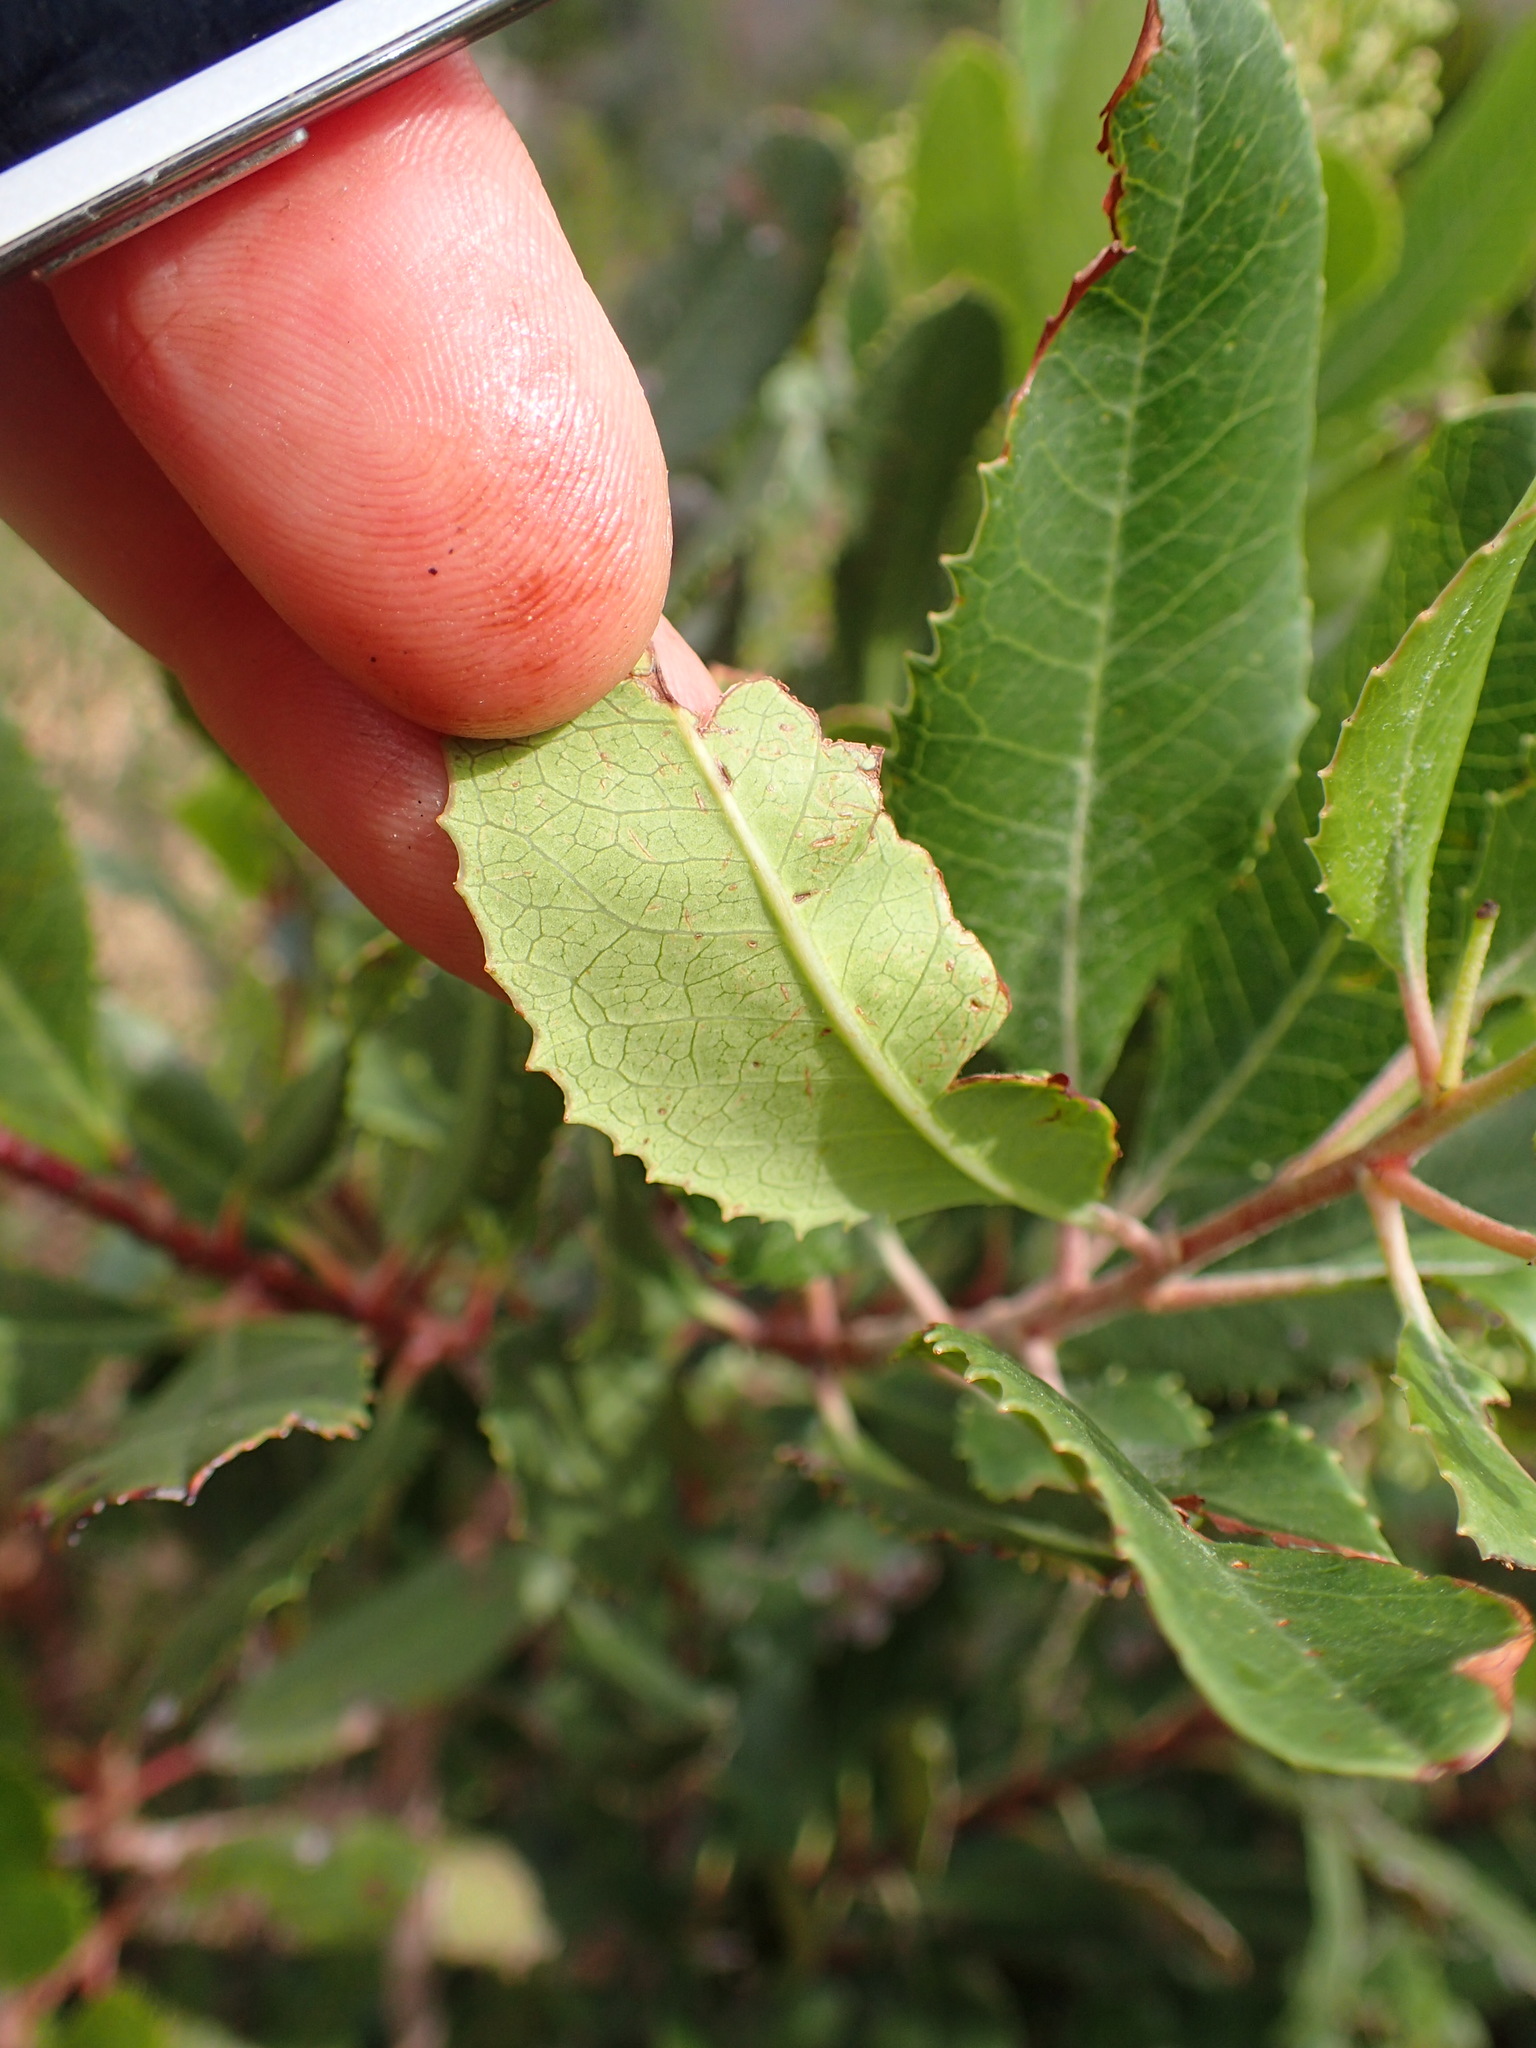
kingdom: Plantae
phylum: Tracheophyta
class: Magnoliopsida
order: Rosales
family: Rosaceae
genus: Heteromeles
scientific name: Heteromeles arbutifolia
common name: California-holly
